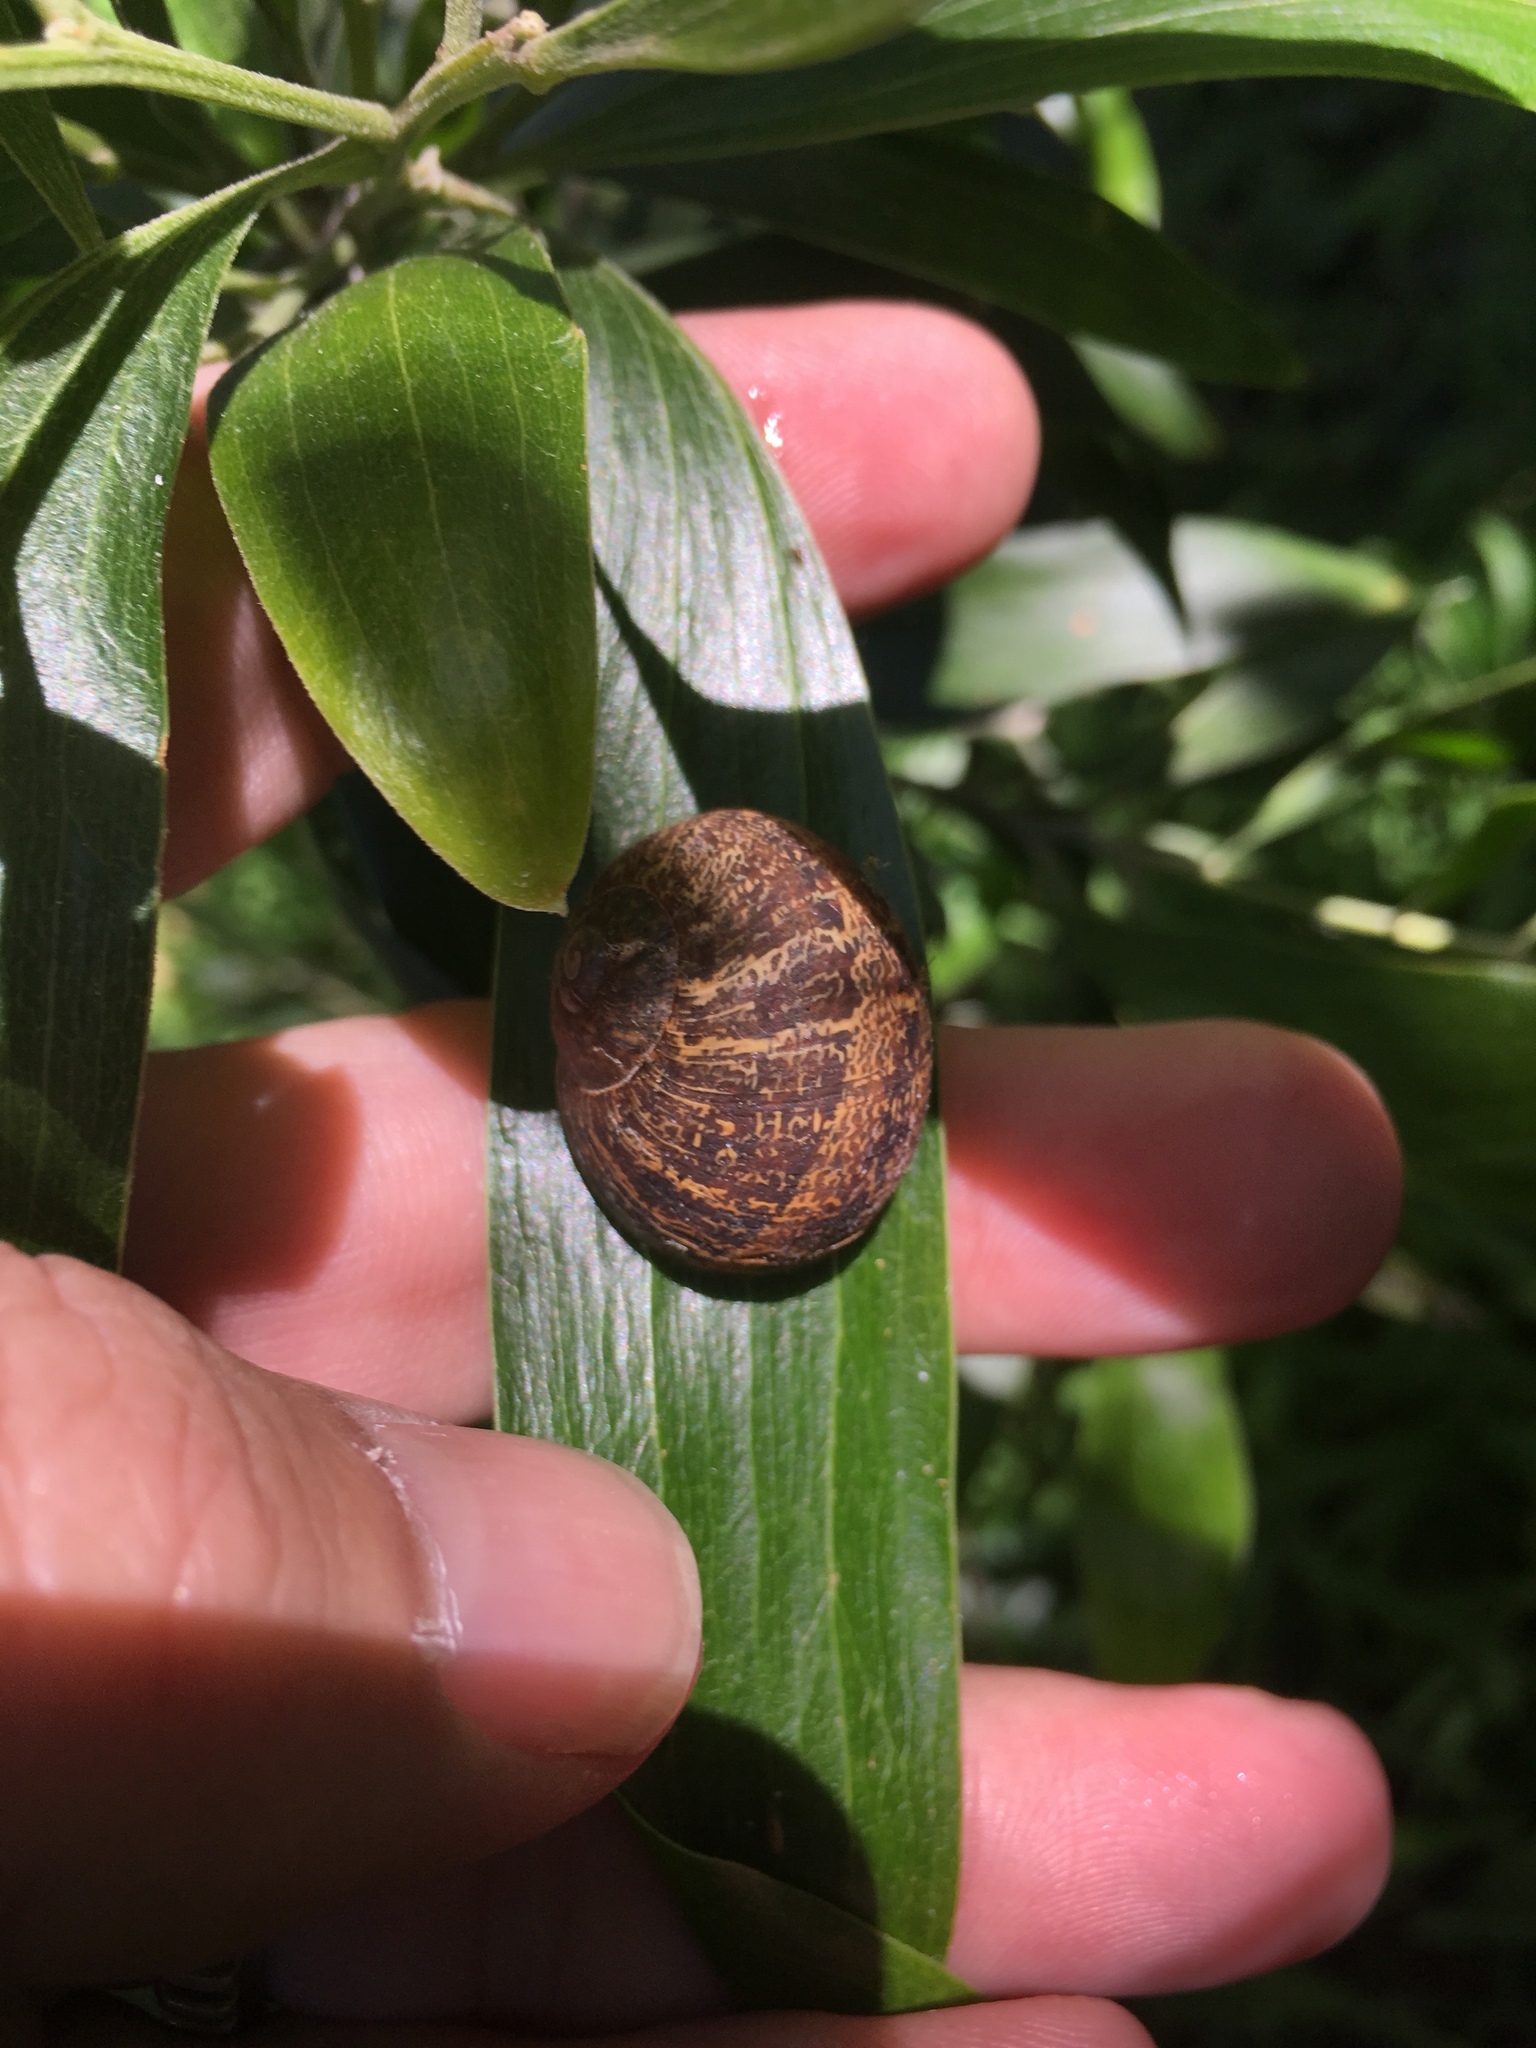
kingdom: Animalia
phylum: Mollusca
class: Gastropoda
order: Stylommatophora
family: Helicidae
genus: Cornu
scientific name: Cornu aspersum
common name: Brown garden snail
